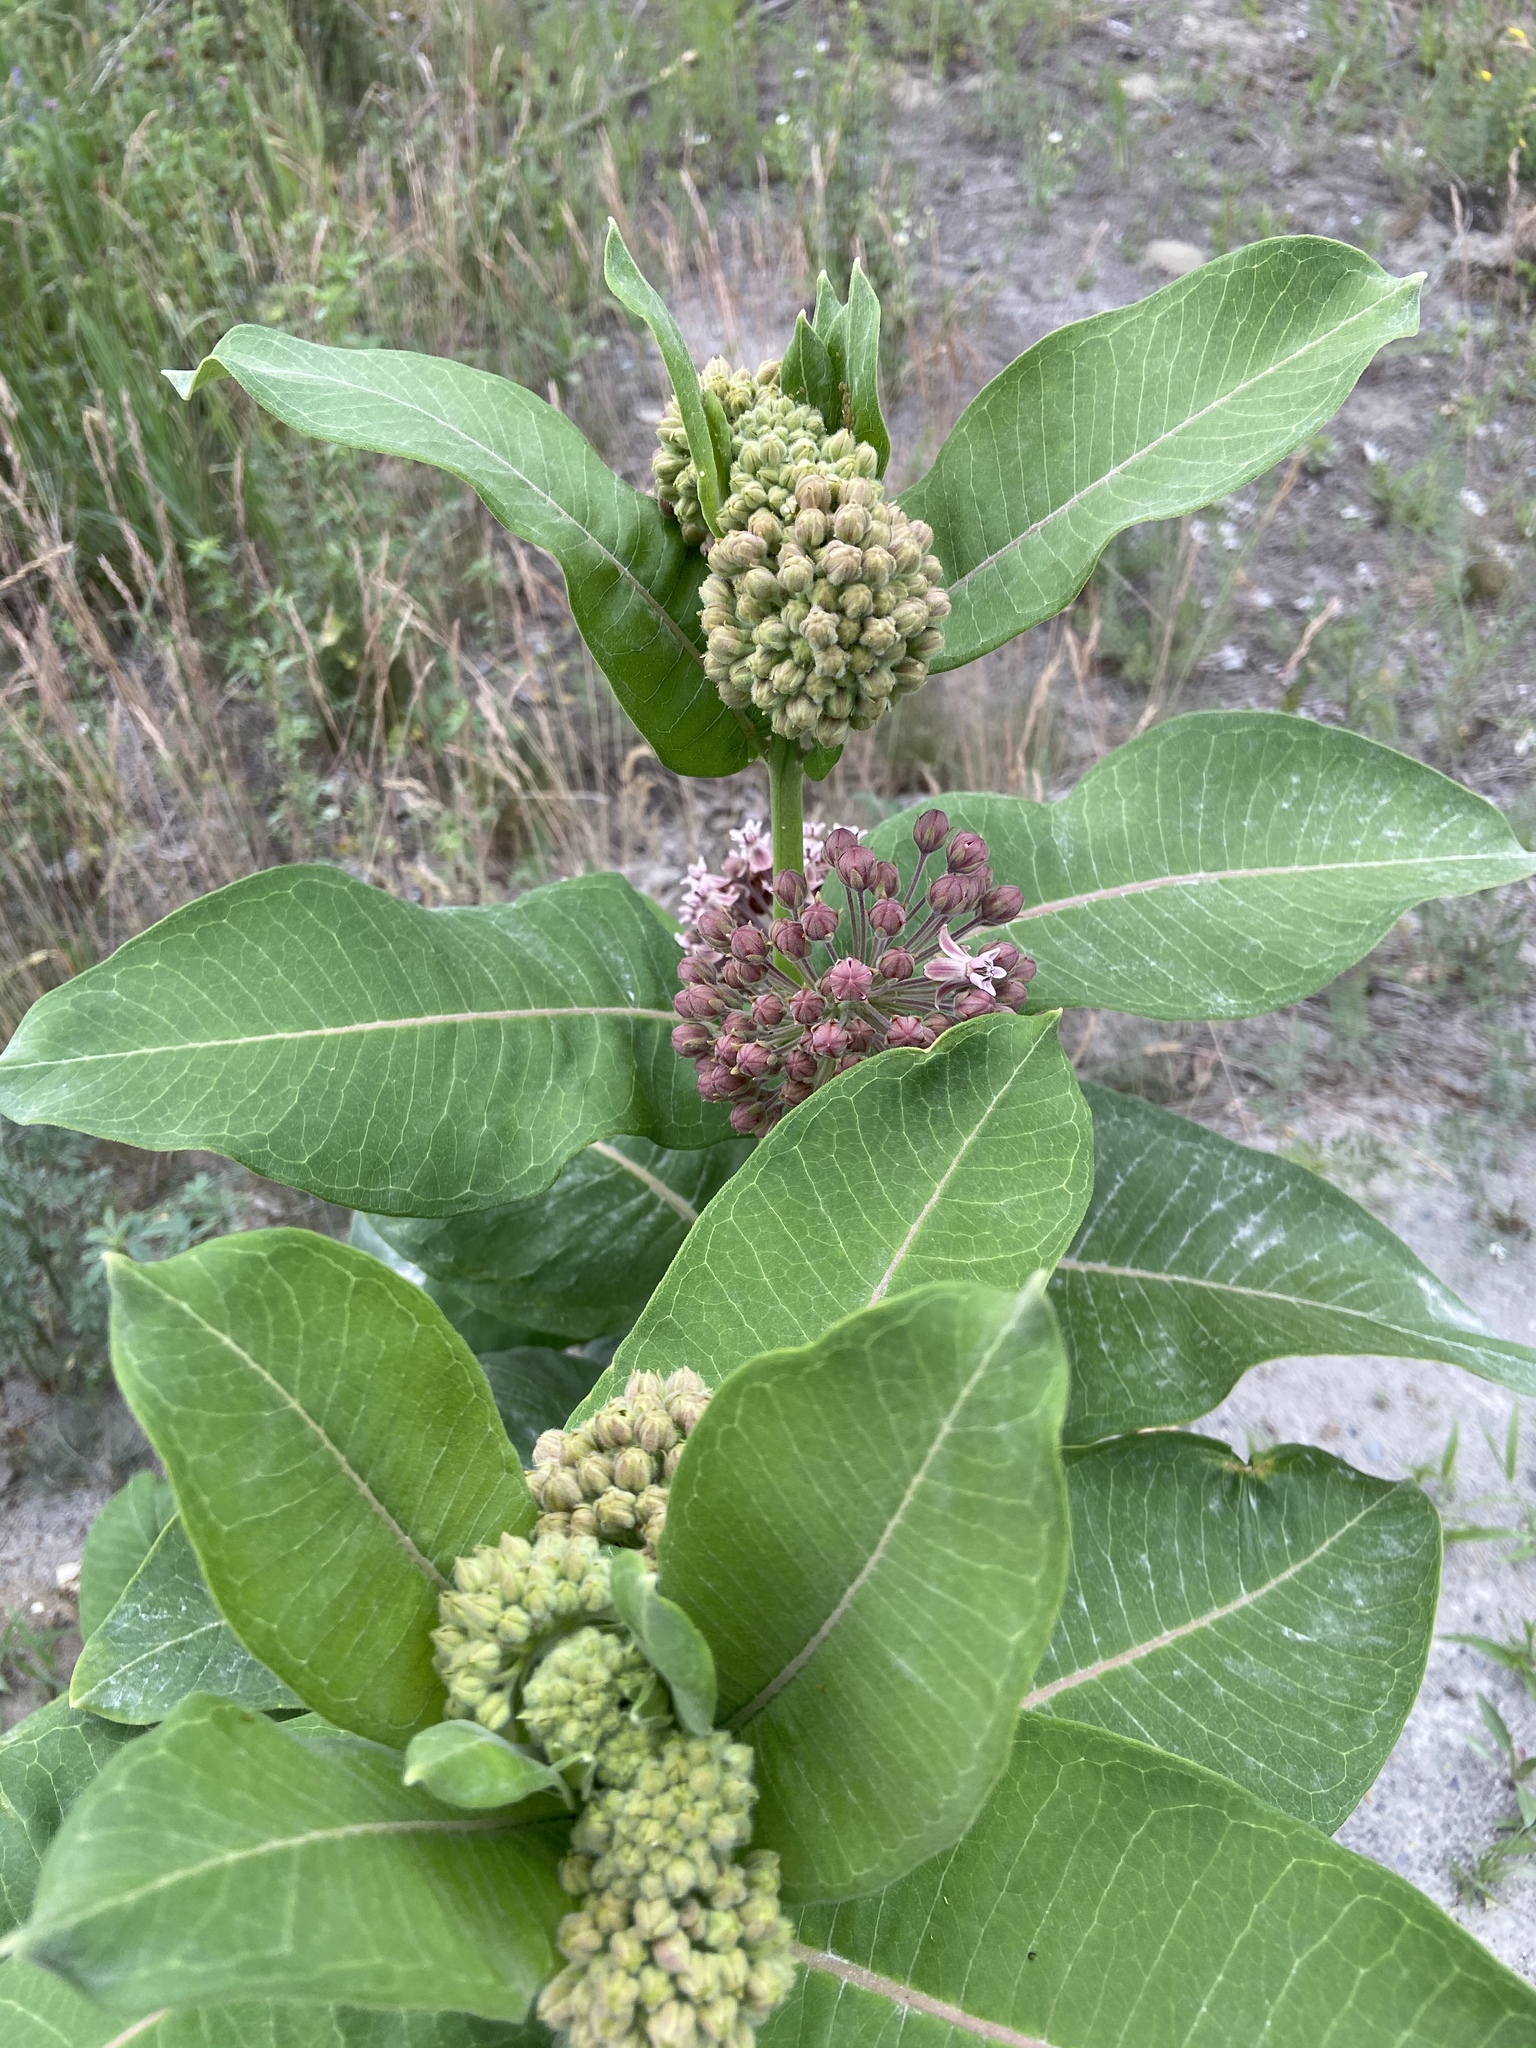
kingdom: Plantae
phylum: Tracheophyta
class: Magnoliopsida
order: Gentianales
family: Apocynaceae
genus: Asclepias
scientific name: Asclepias syriaca
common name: Common milkweed
